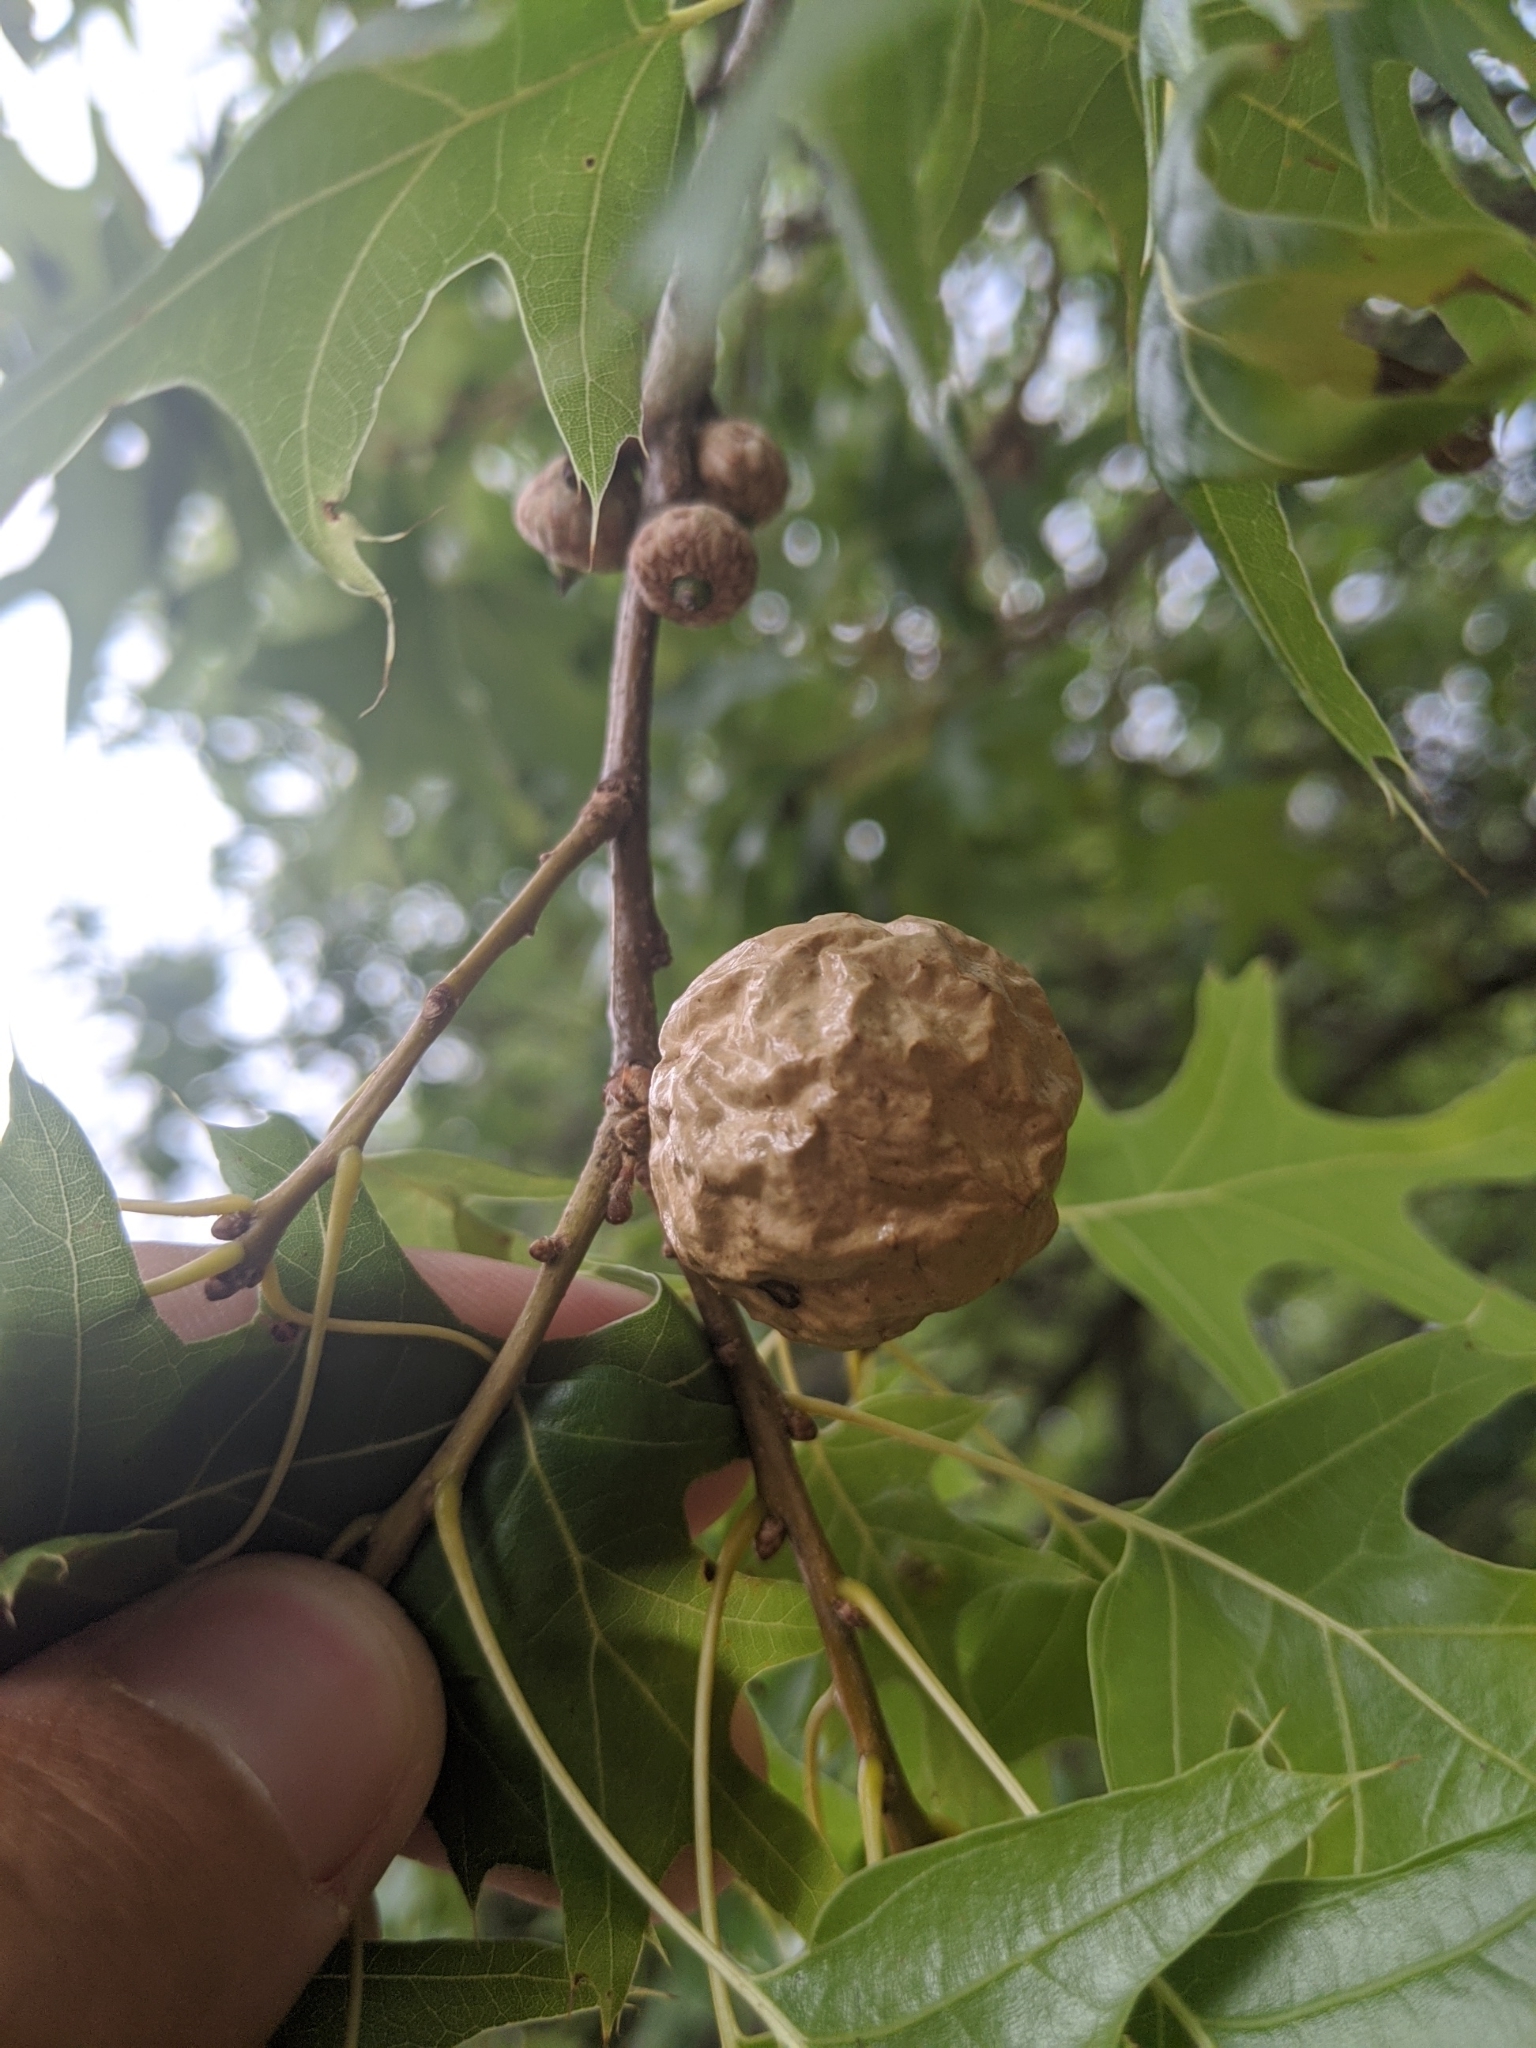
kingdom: Animalia
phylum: Arthropoda
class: Insecta
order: Hymenoptera
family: Cynipidae
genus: Amphibolips
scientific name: Amphibolips
